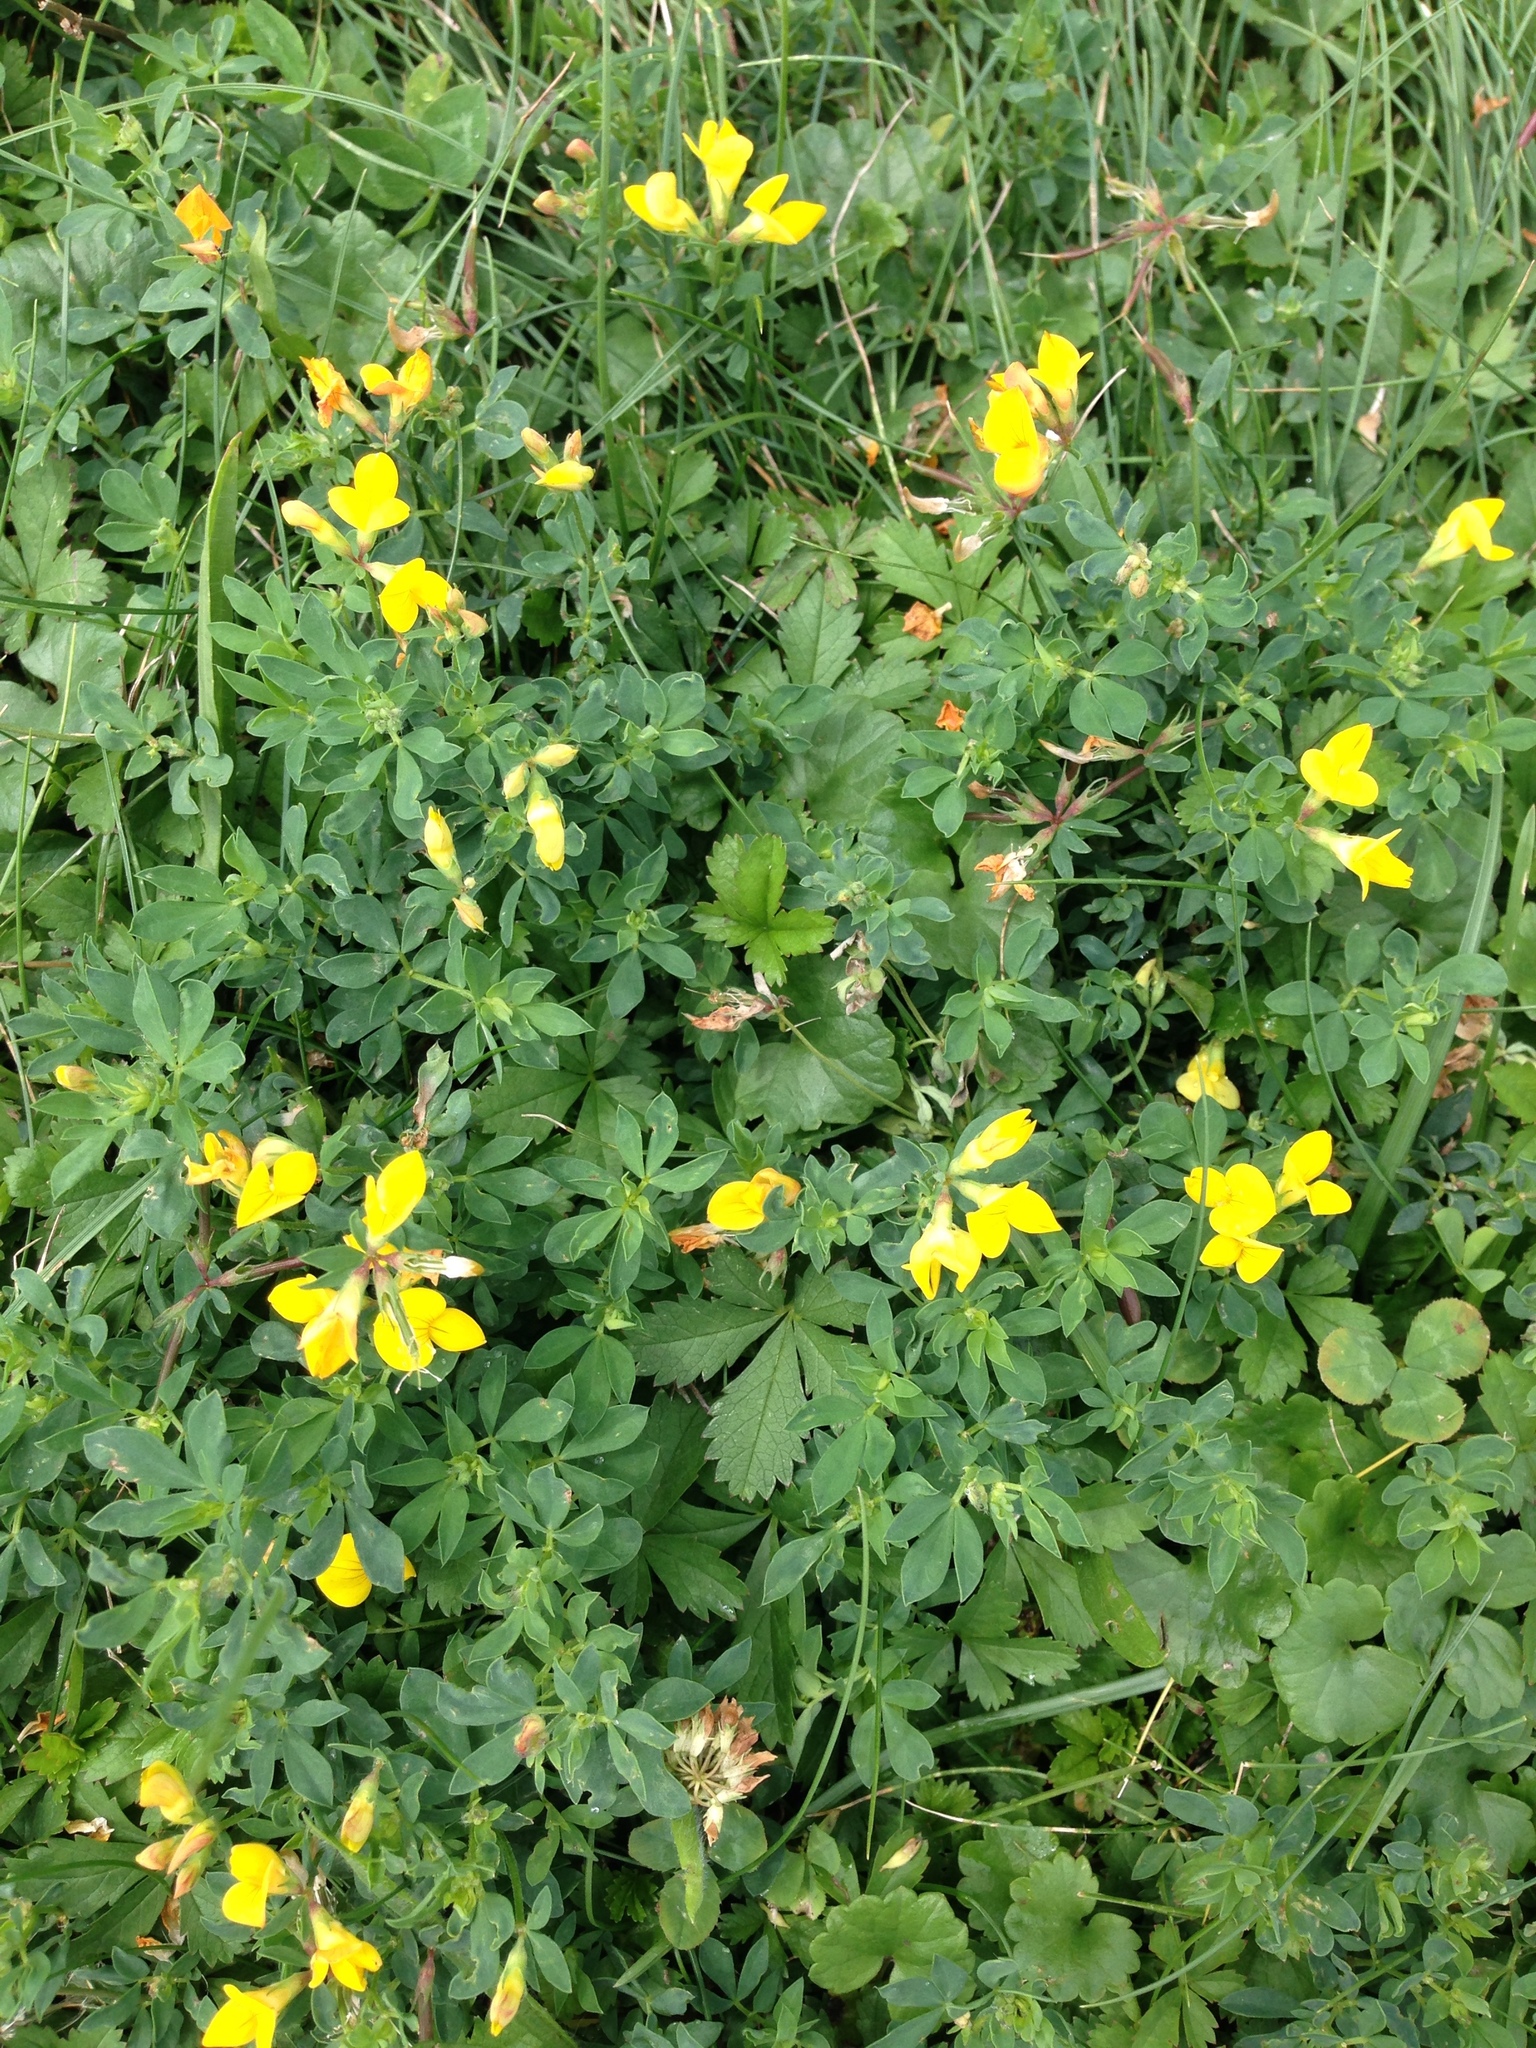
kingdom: Plantae
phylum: Tracheophyta
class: Magnoliopsida
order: Fabales
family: Fabaceae
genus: Lotus
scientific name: Lotus corniculatus
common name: Common bird's-foot-trefoil
